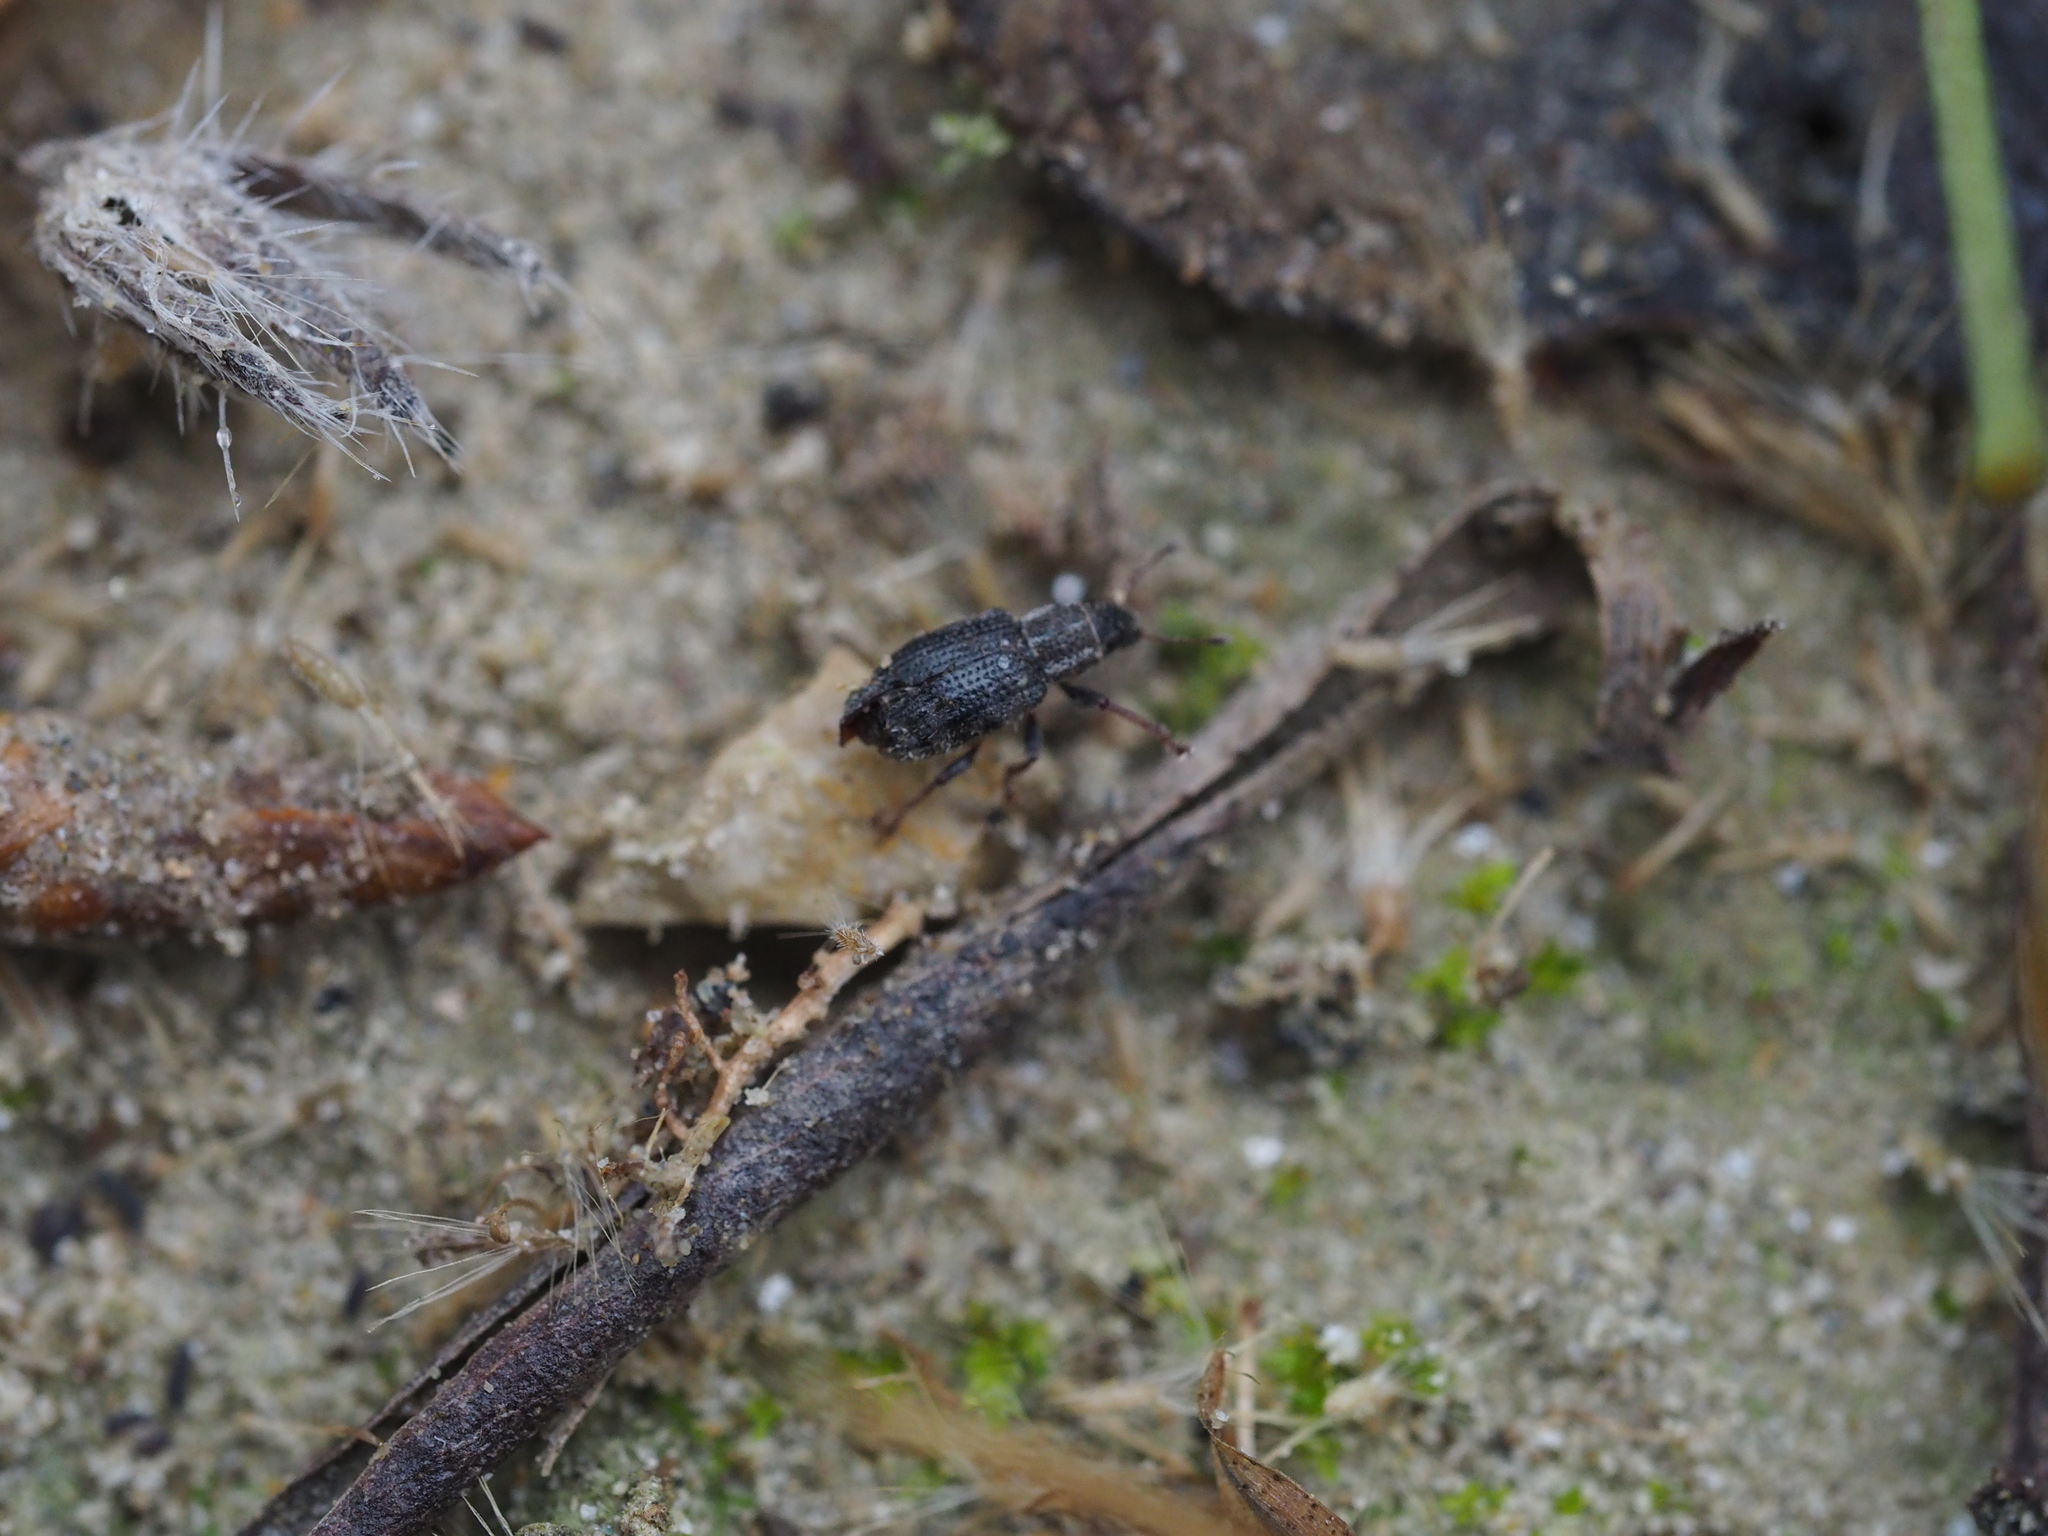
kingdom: Animalia
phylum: Arthropoda
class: Insecta
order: Coleoptera
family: Curculionidae
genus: Sitona
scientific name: Sitona hispidulus
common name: Clover weevil
